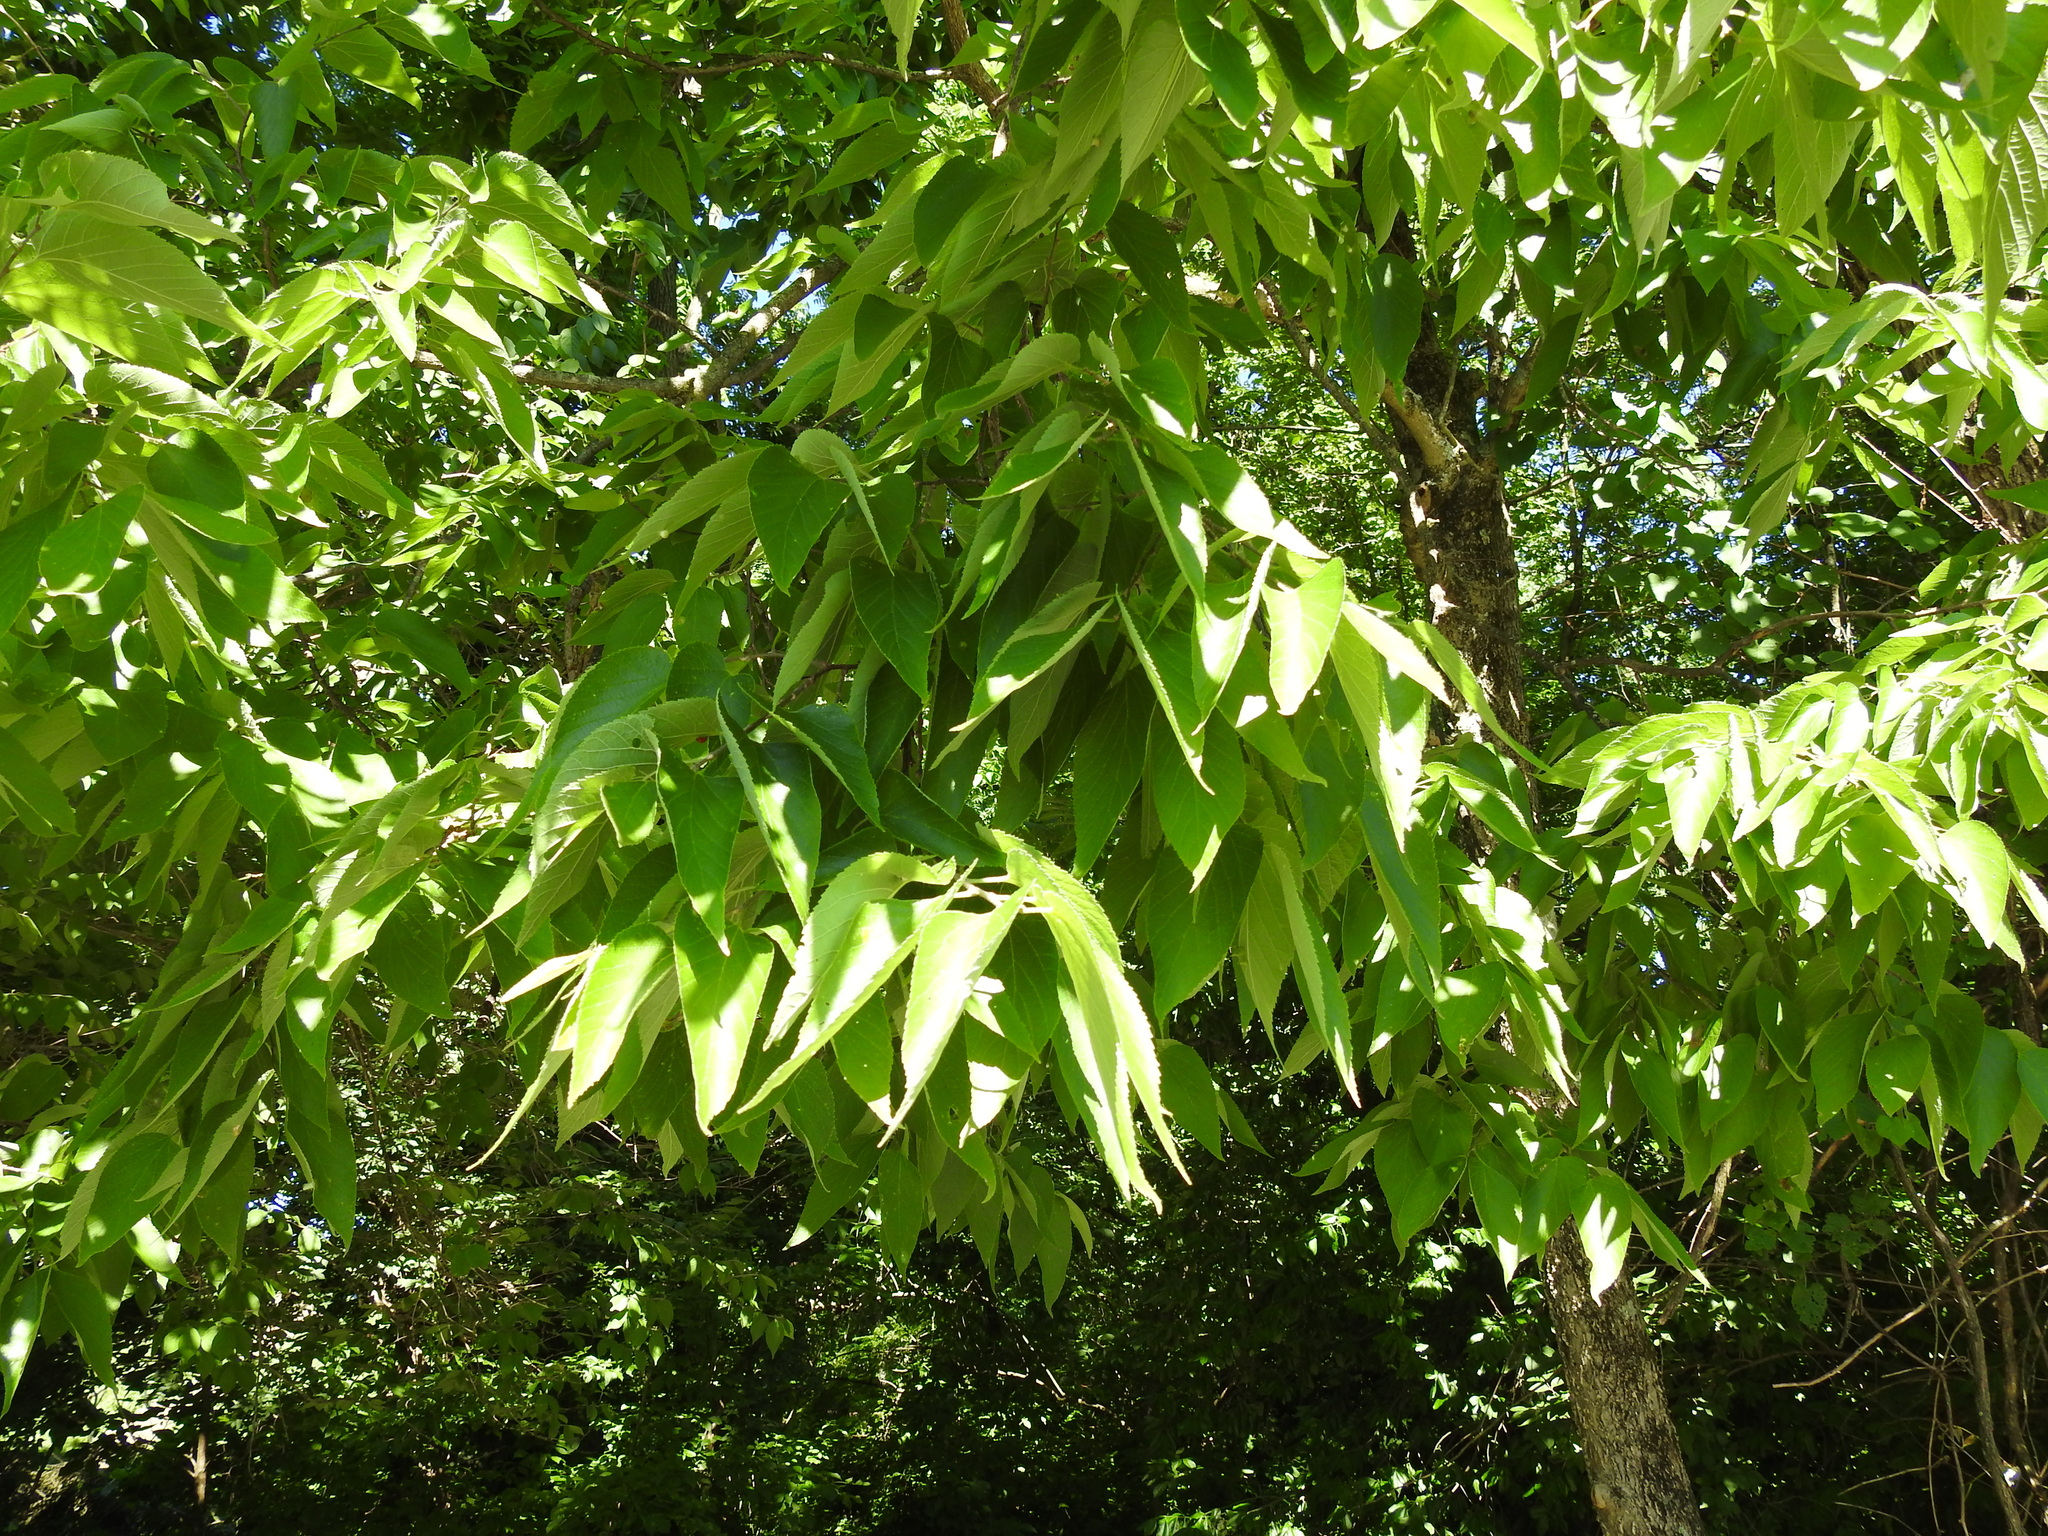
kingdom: Plantae
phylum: Tracheophyta
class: Magnoliopsida
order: Rosales
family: Cannabaceae
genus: Celtis
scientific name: Celtis occidentalis
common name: Common hackberry
